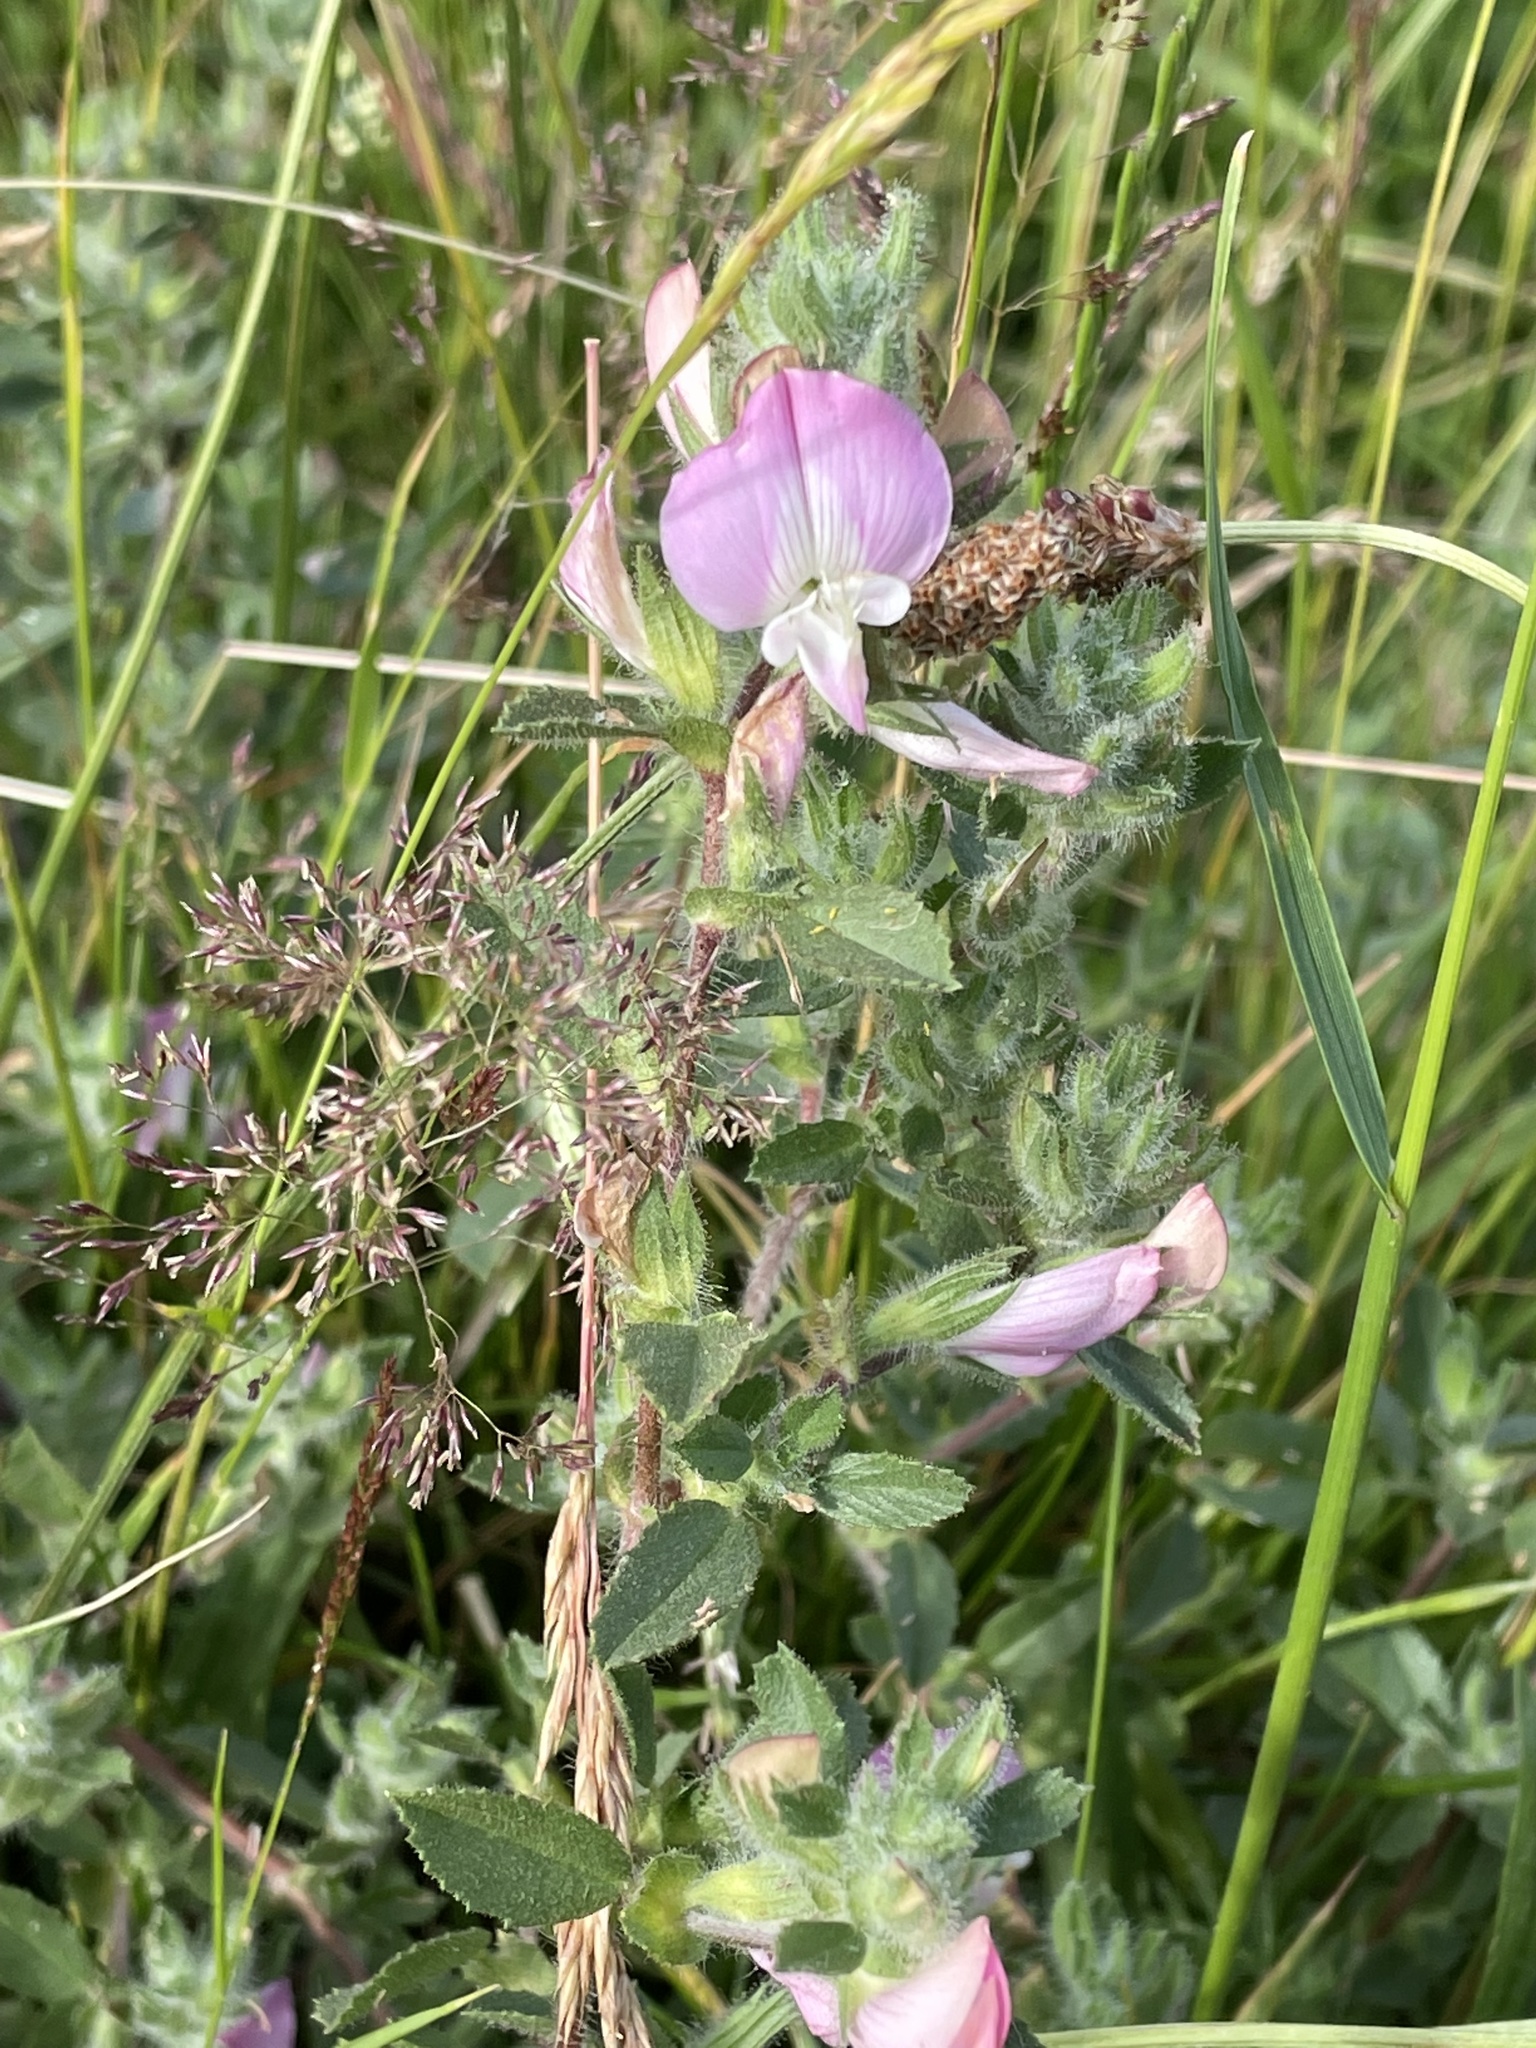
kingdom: Plantae
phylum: Tracheophyta
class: Magnoliopsida
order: Fabales
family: Fabaceae
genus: Ononis
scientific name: Ononis spinosa
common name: Spiny restharrow
